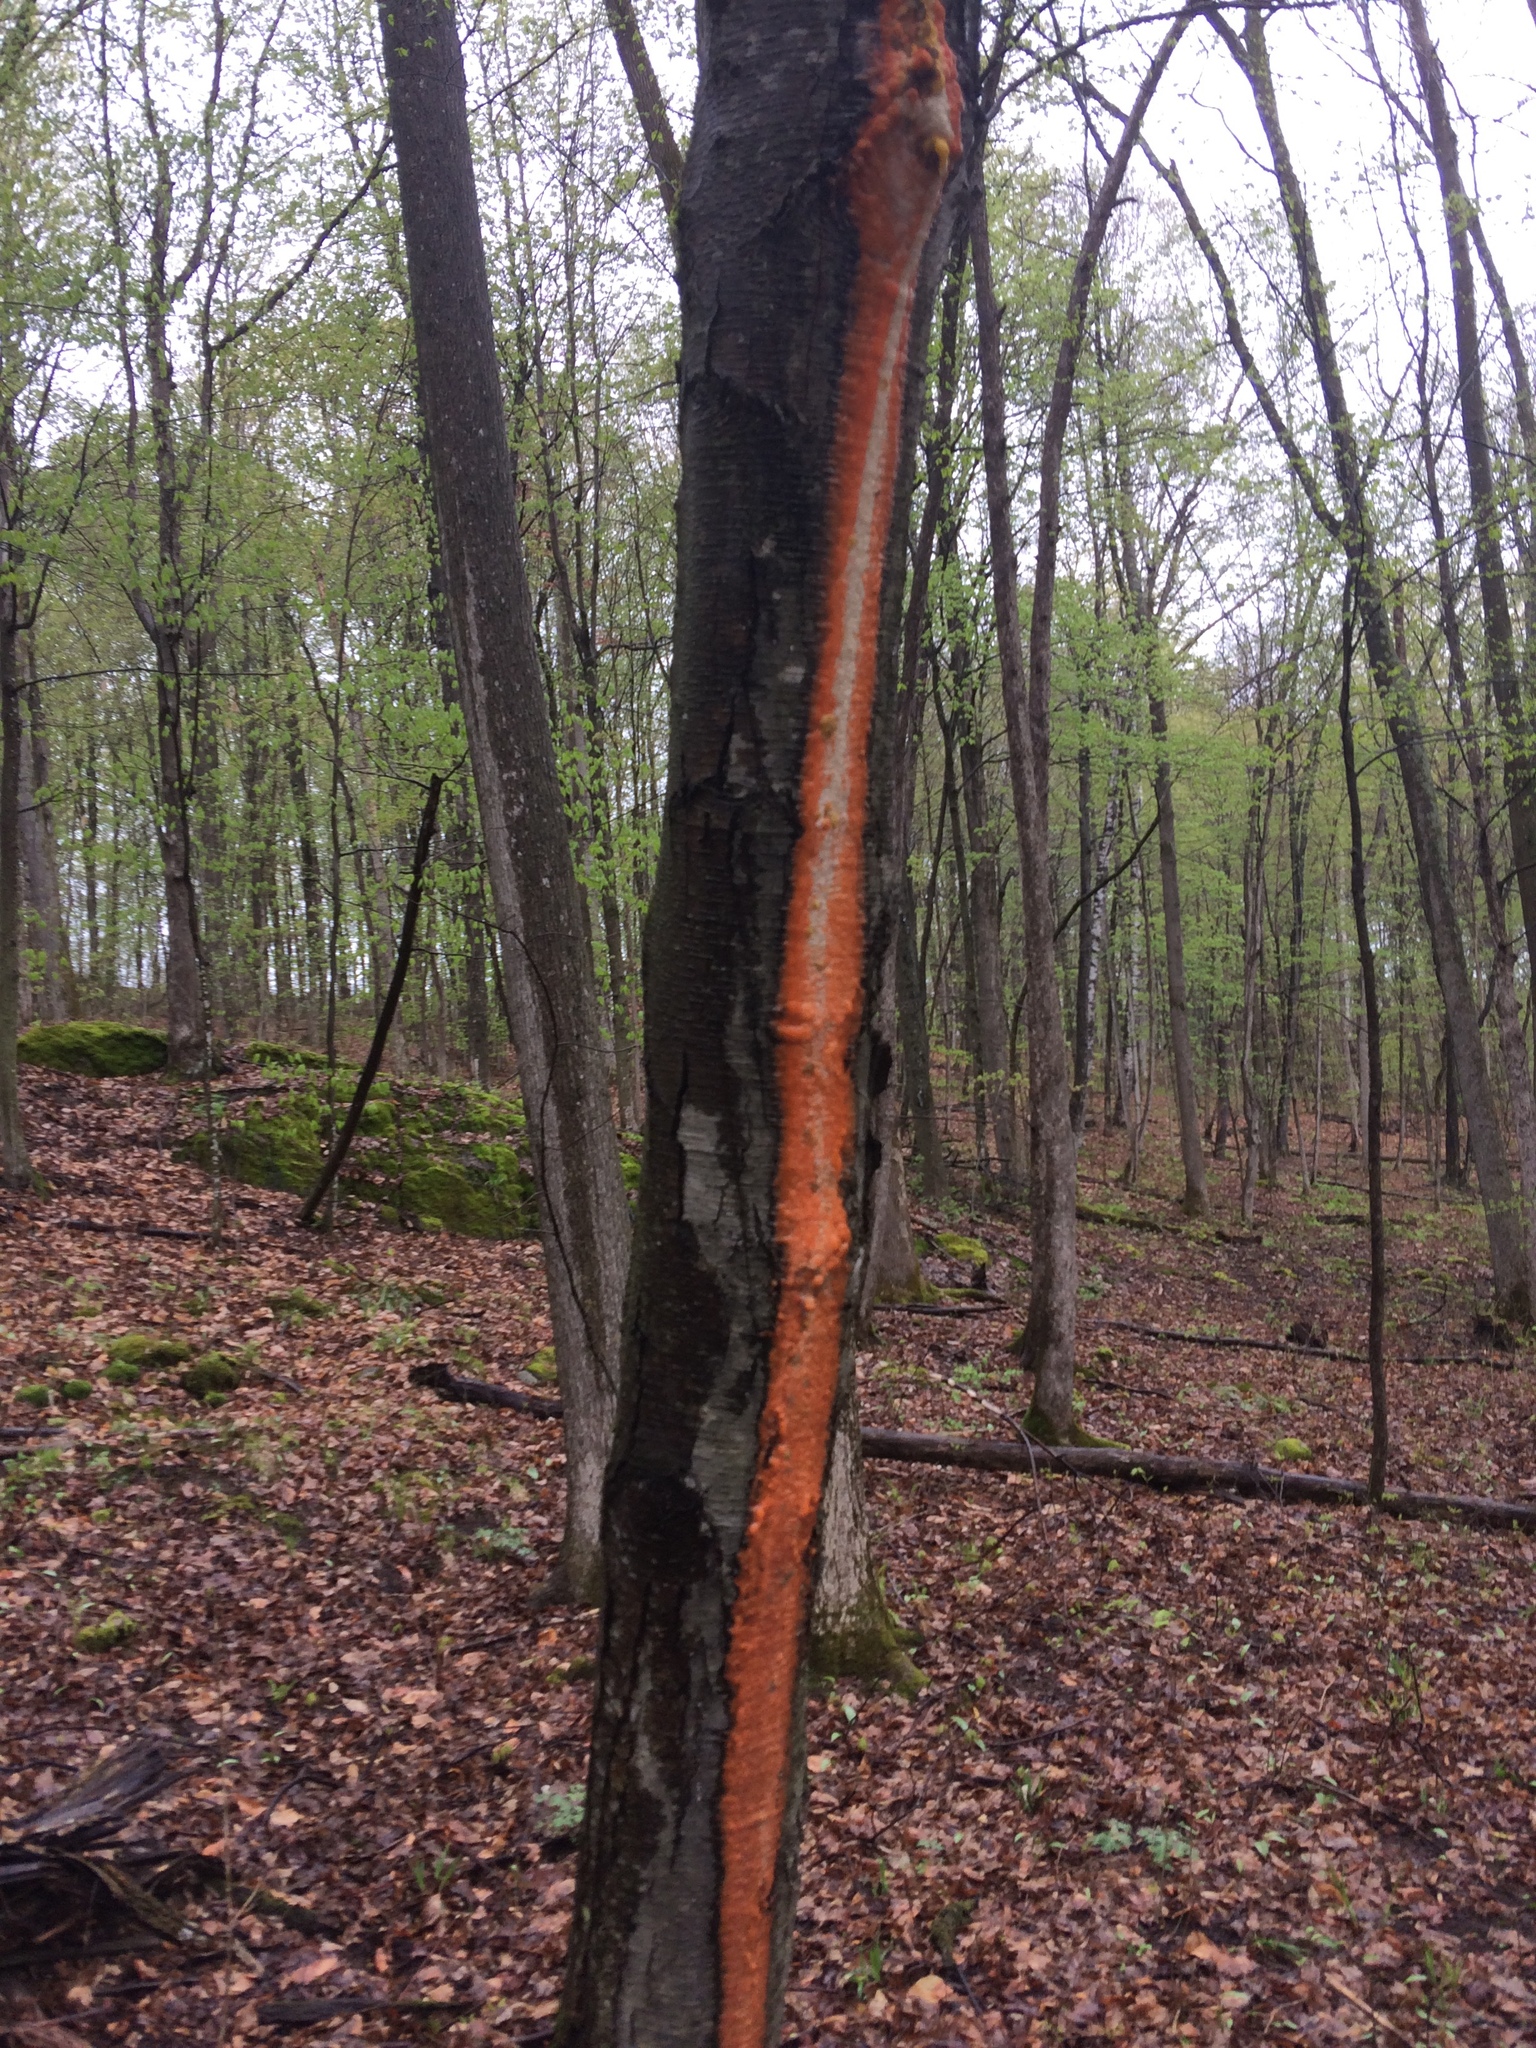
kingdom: Plantae
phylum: Tracheophyta
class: Magnoliopsida
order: Fagales
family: Betulaceae
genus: Betula
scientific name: Betula lenta
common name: Black birch
